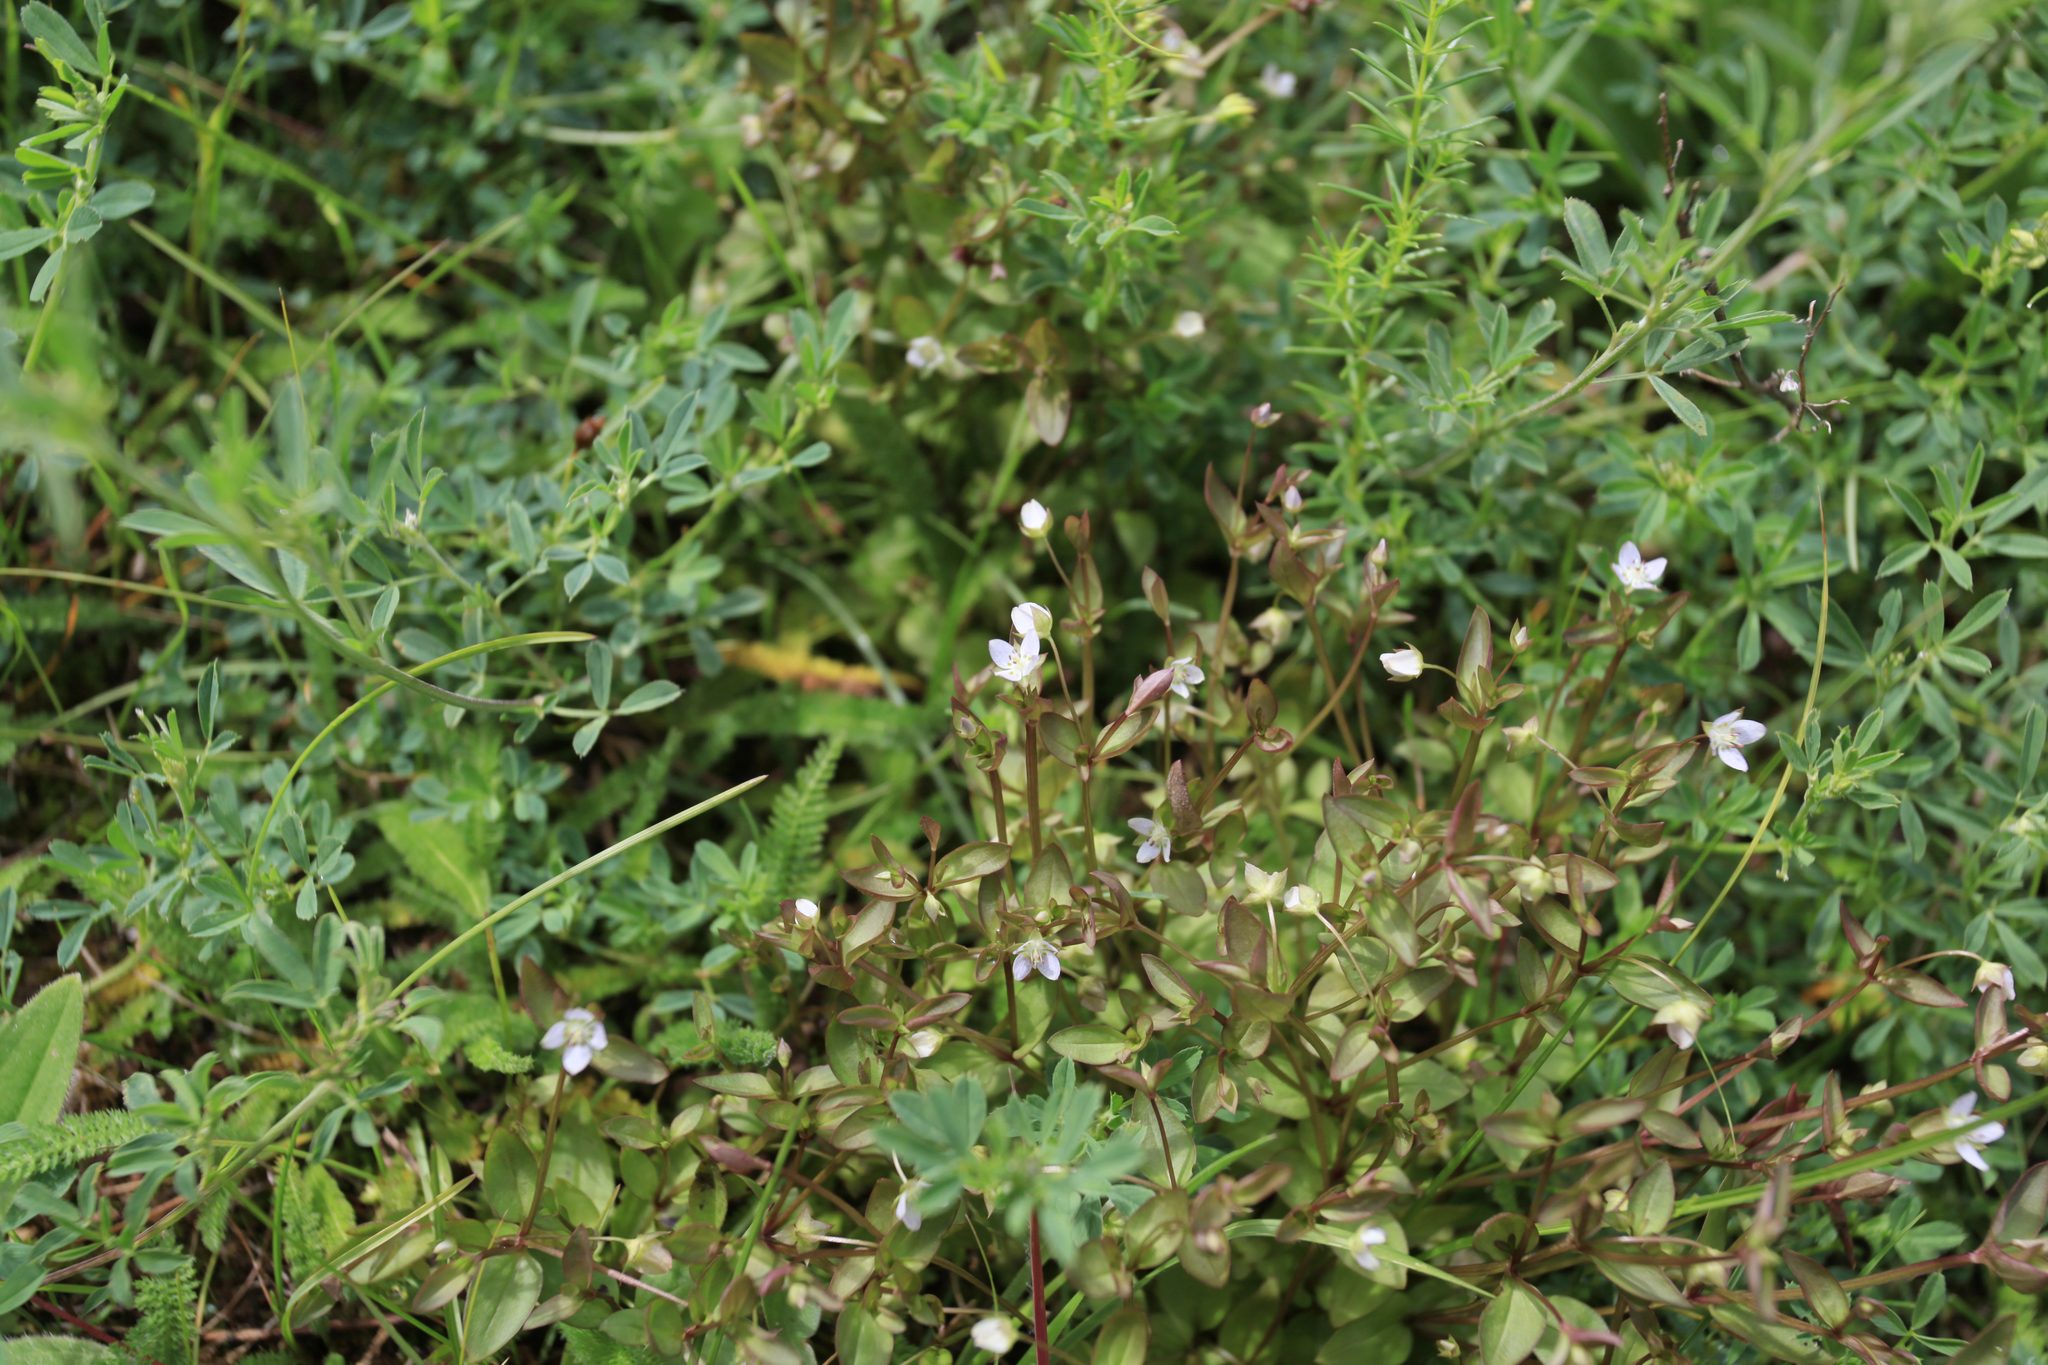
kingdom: Plantae
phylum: Tracheophyta
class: Magnoliopsida
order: Gentianales
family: Gentianaceae
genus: Swertia
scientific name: Swertia dichotoma
